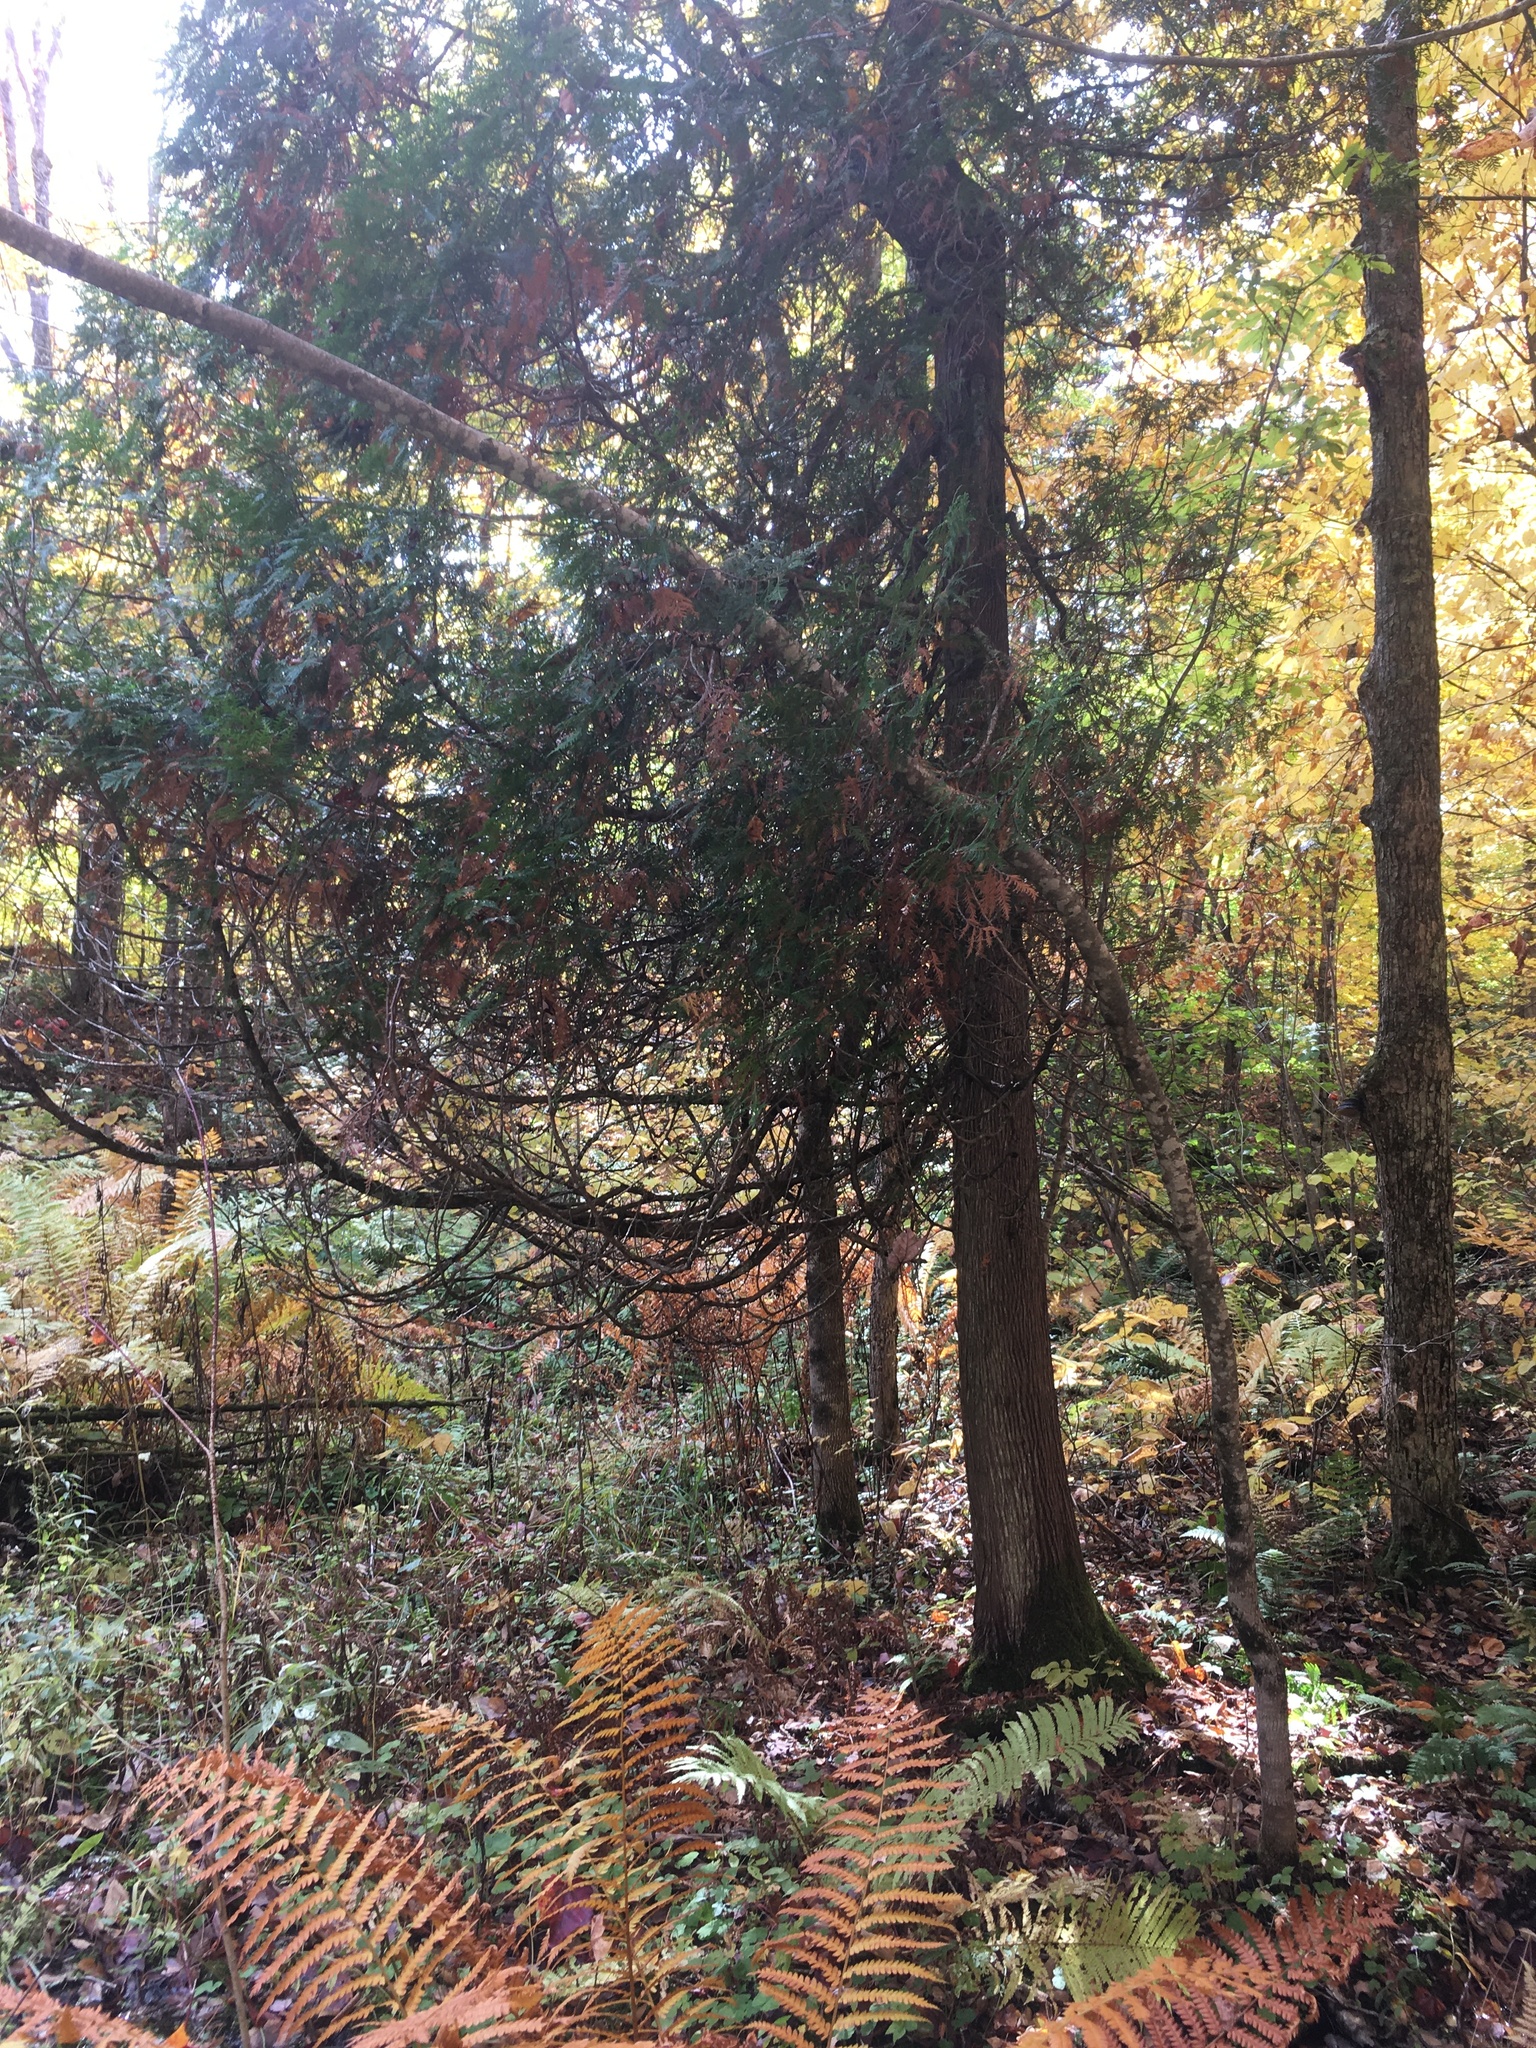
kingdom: Plantae
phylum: Tracheophyta
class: Pinopsida
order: Pinales
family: Cupressaceae
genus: Thuja
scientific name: Thuja occidentalis
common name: Northern white-cedar
